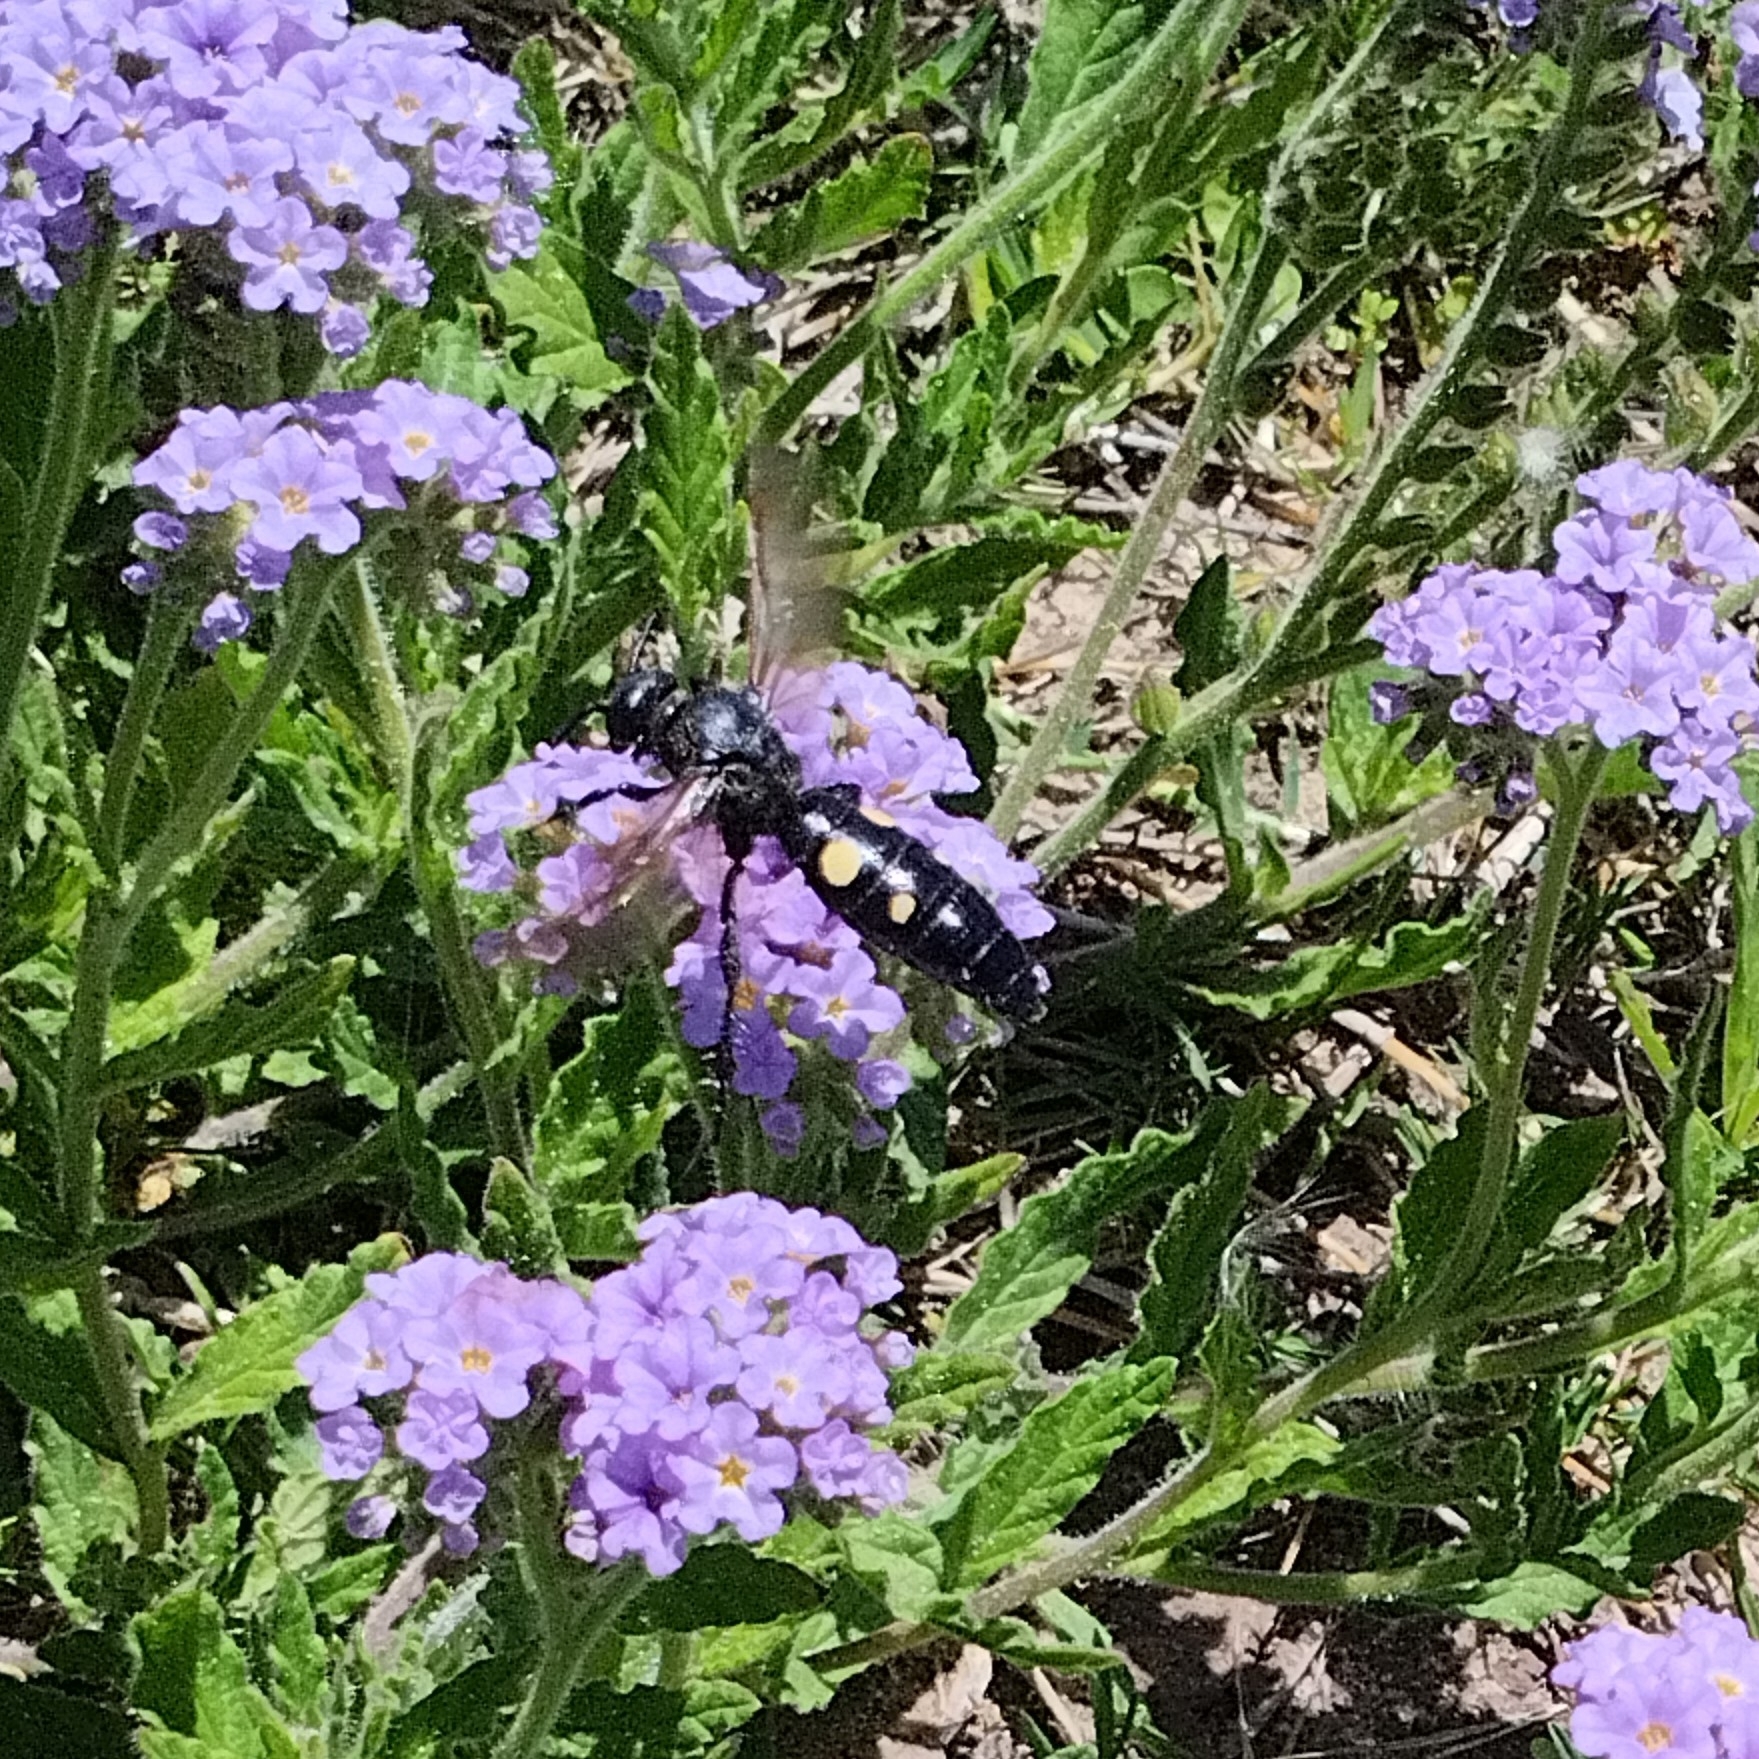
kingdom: Animalia
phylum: Arthropoda
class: Insecta
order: Hymenoptera
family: Scoliidae
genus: Pygodasis
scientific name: Pygodasis
